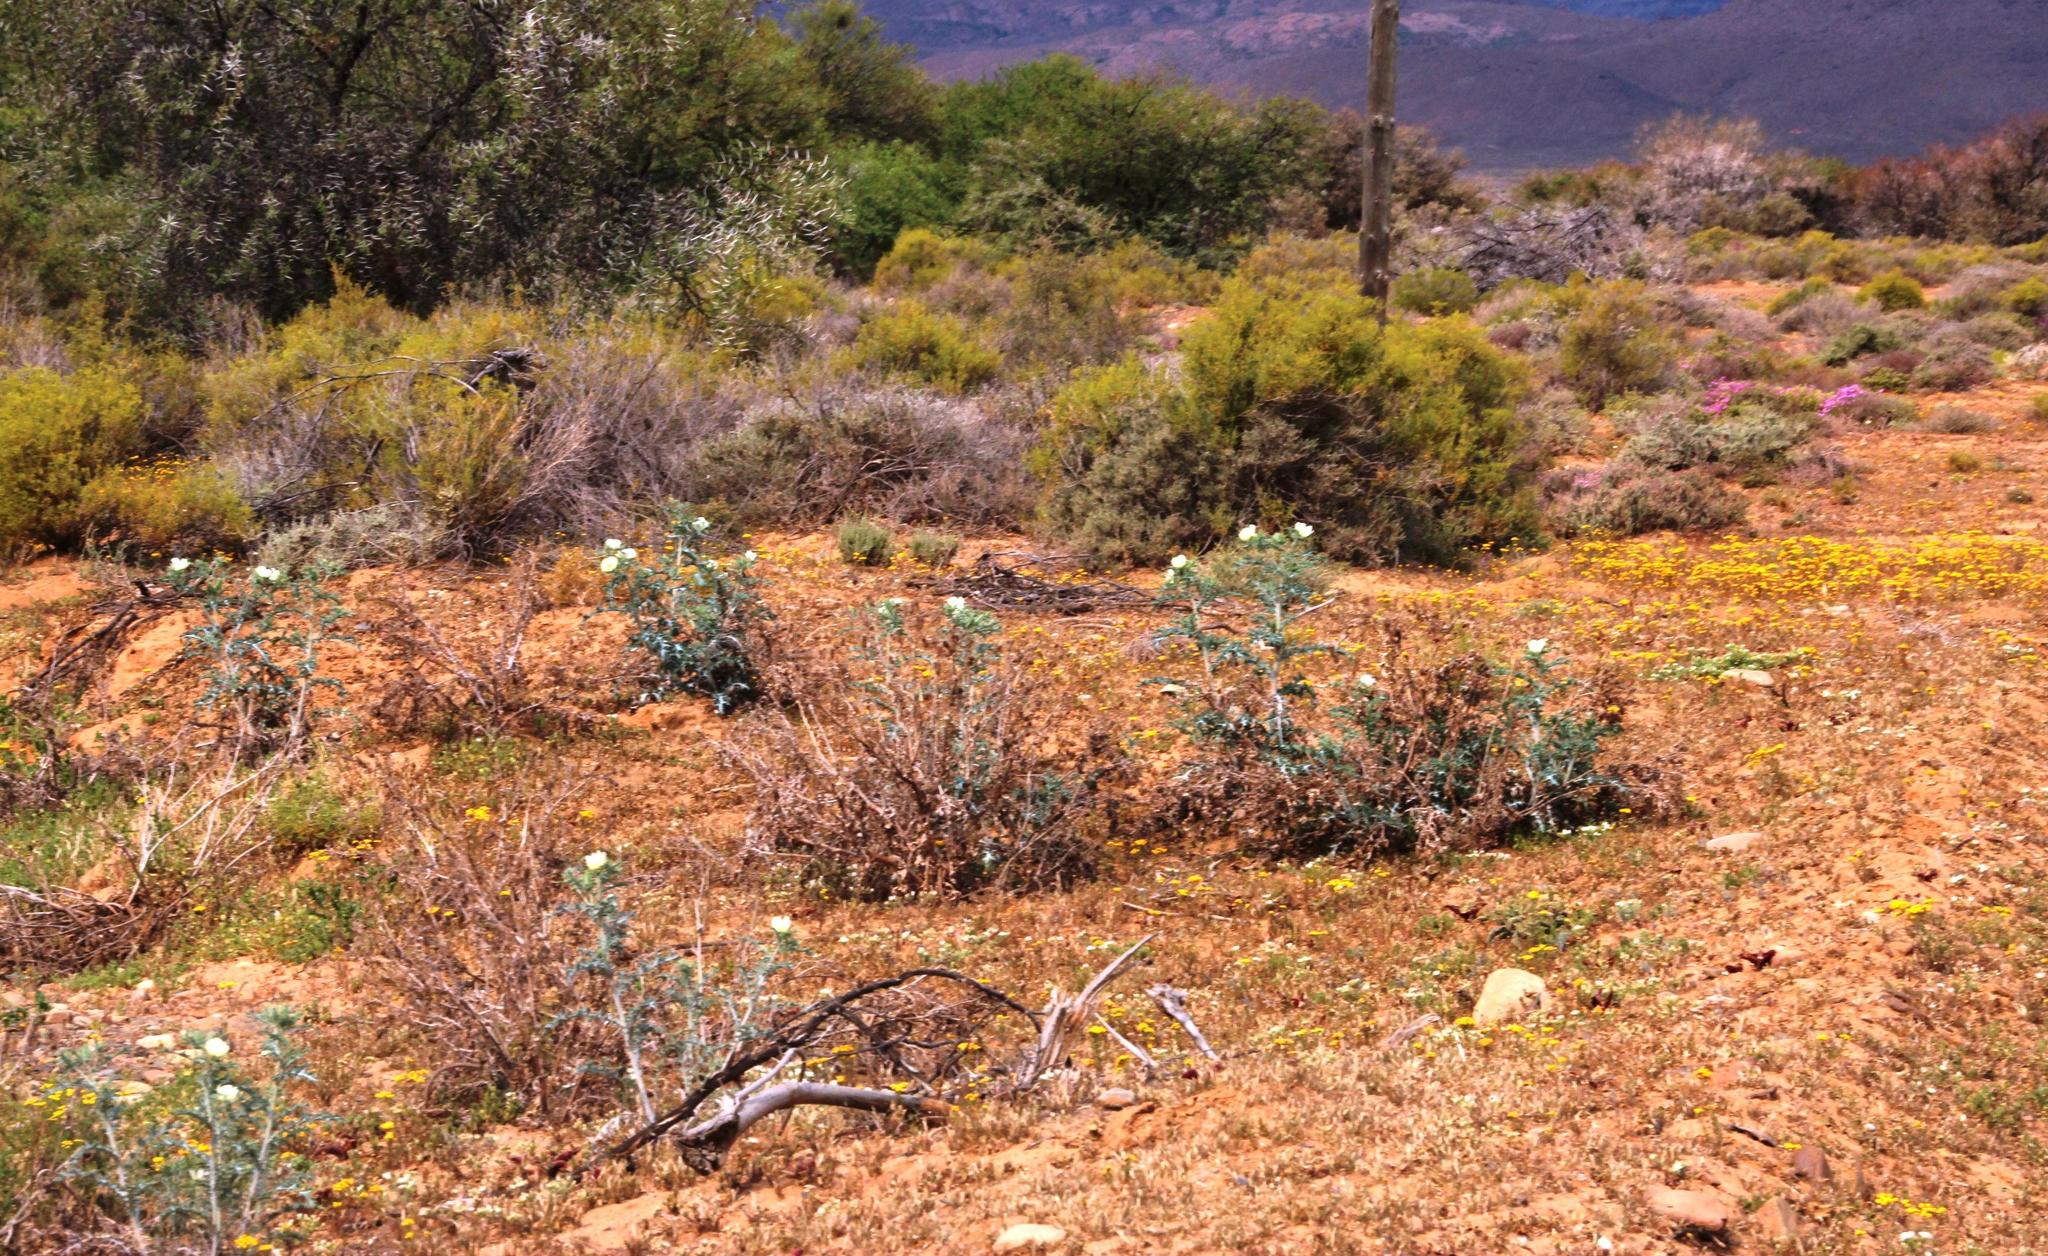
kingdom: Plantae
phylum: Tracheophyta
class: Magnoliopsida
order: Ranunculales
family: Papaveraceae
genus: Argemone
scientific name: Argemone ochroleuca
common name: White-flower mexican-poppy
